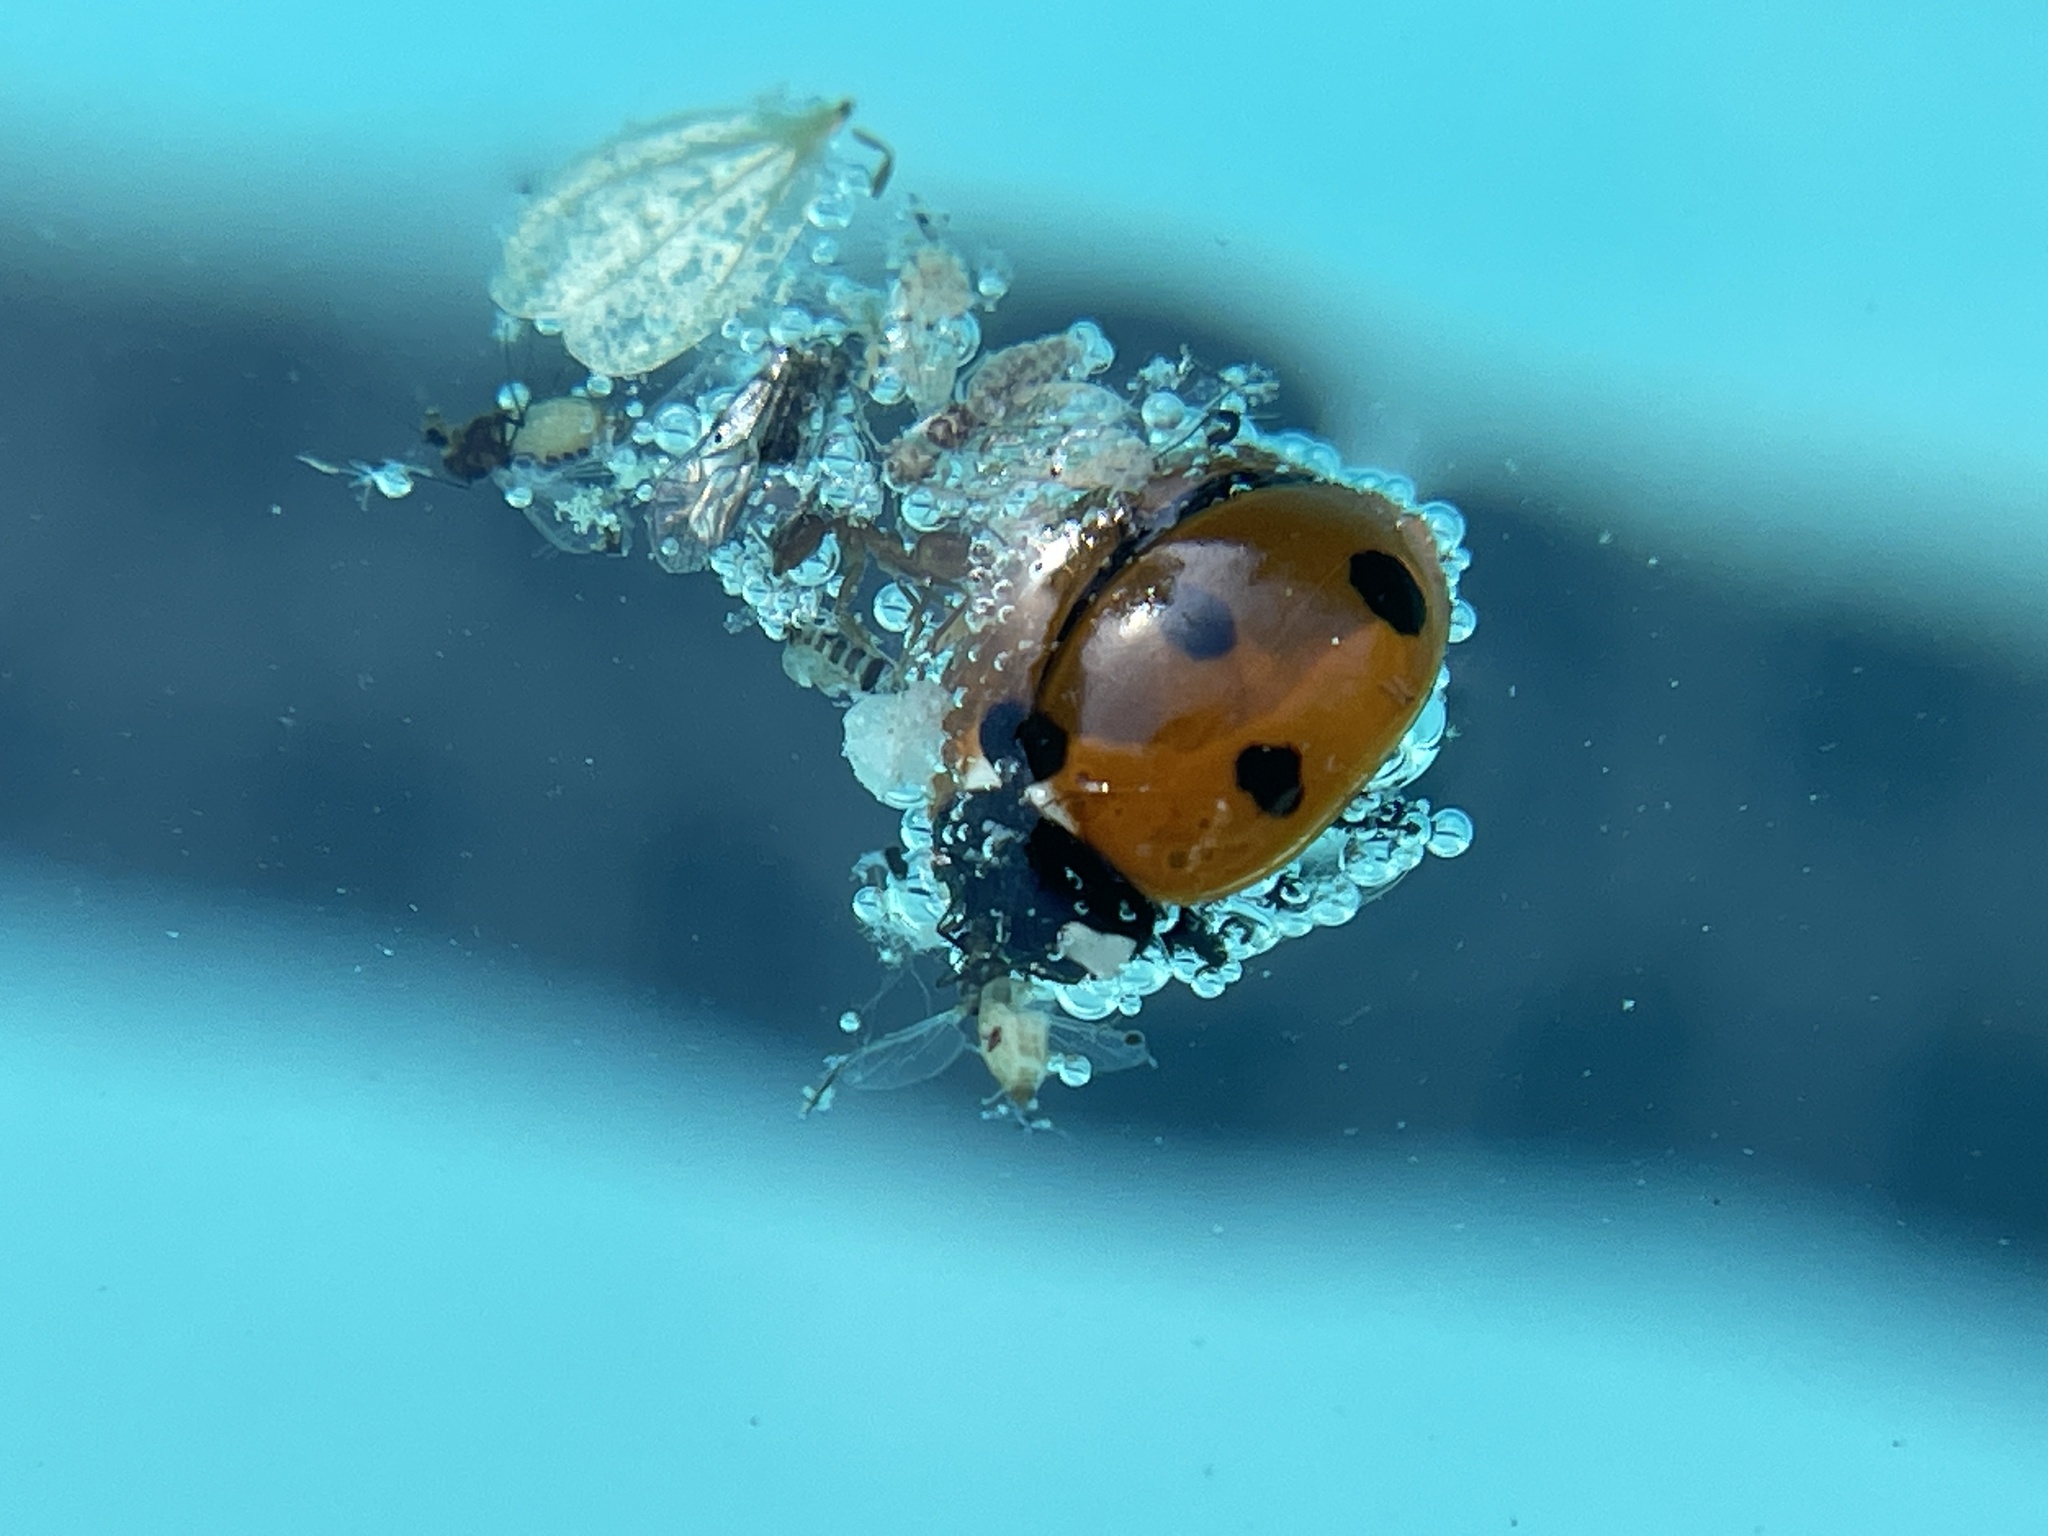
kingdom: Animalia
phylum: Arthropoda
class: Insecta
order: Coleoptera
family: Coccinellidae
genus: Coccinella
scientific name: Coccinella septempunctata
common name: Sevenspotted lady beetle
